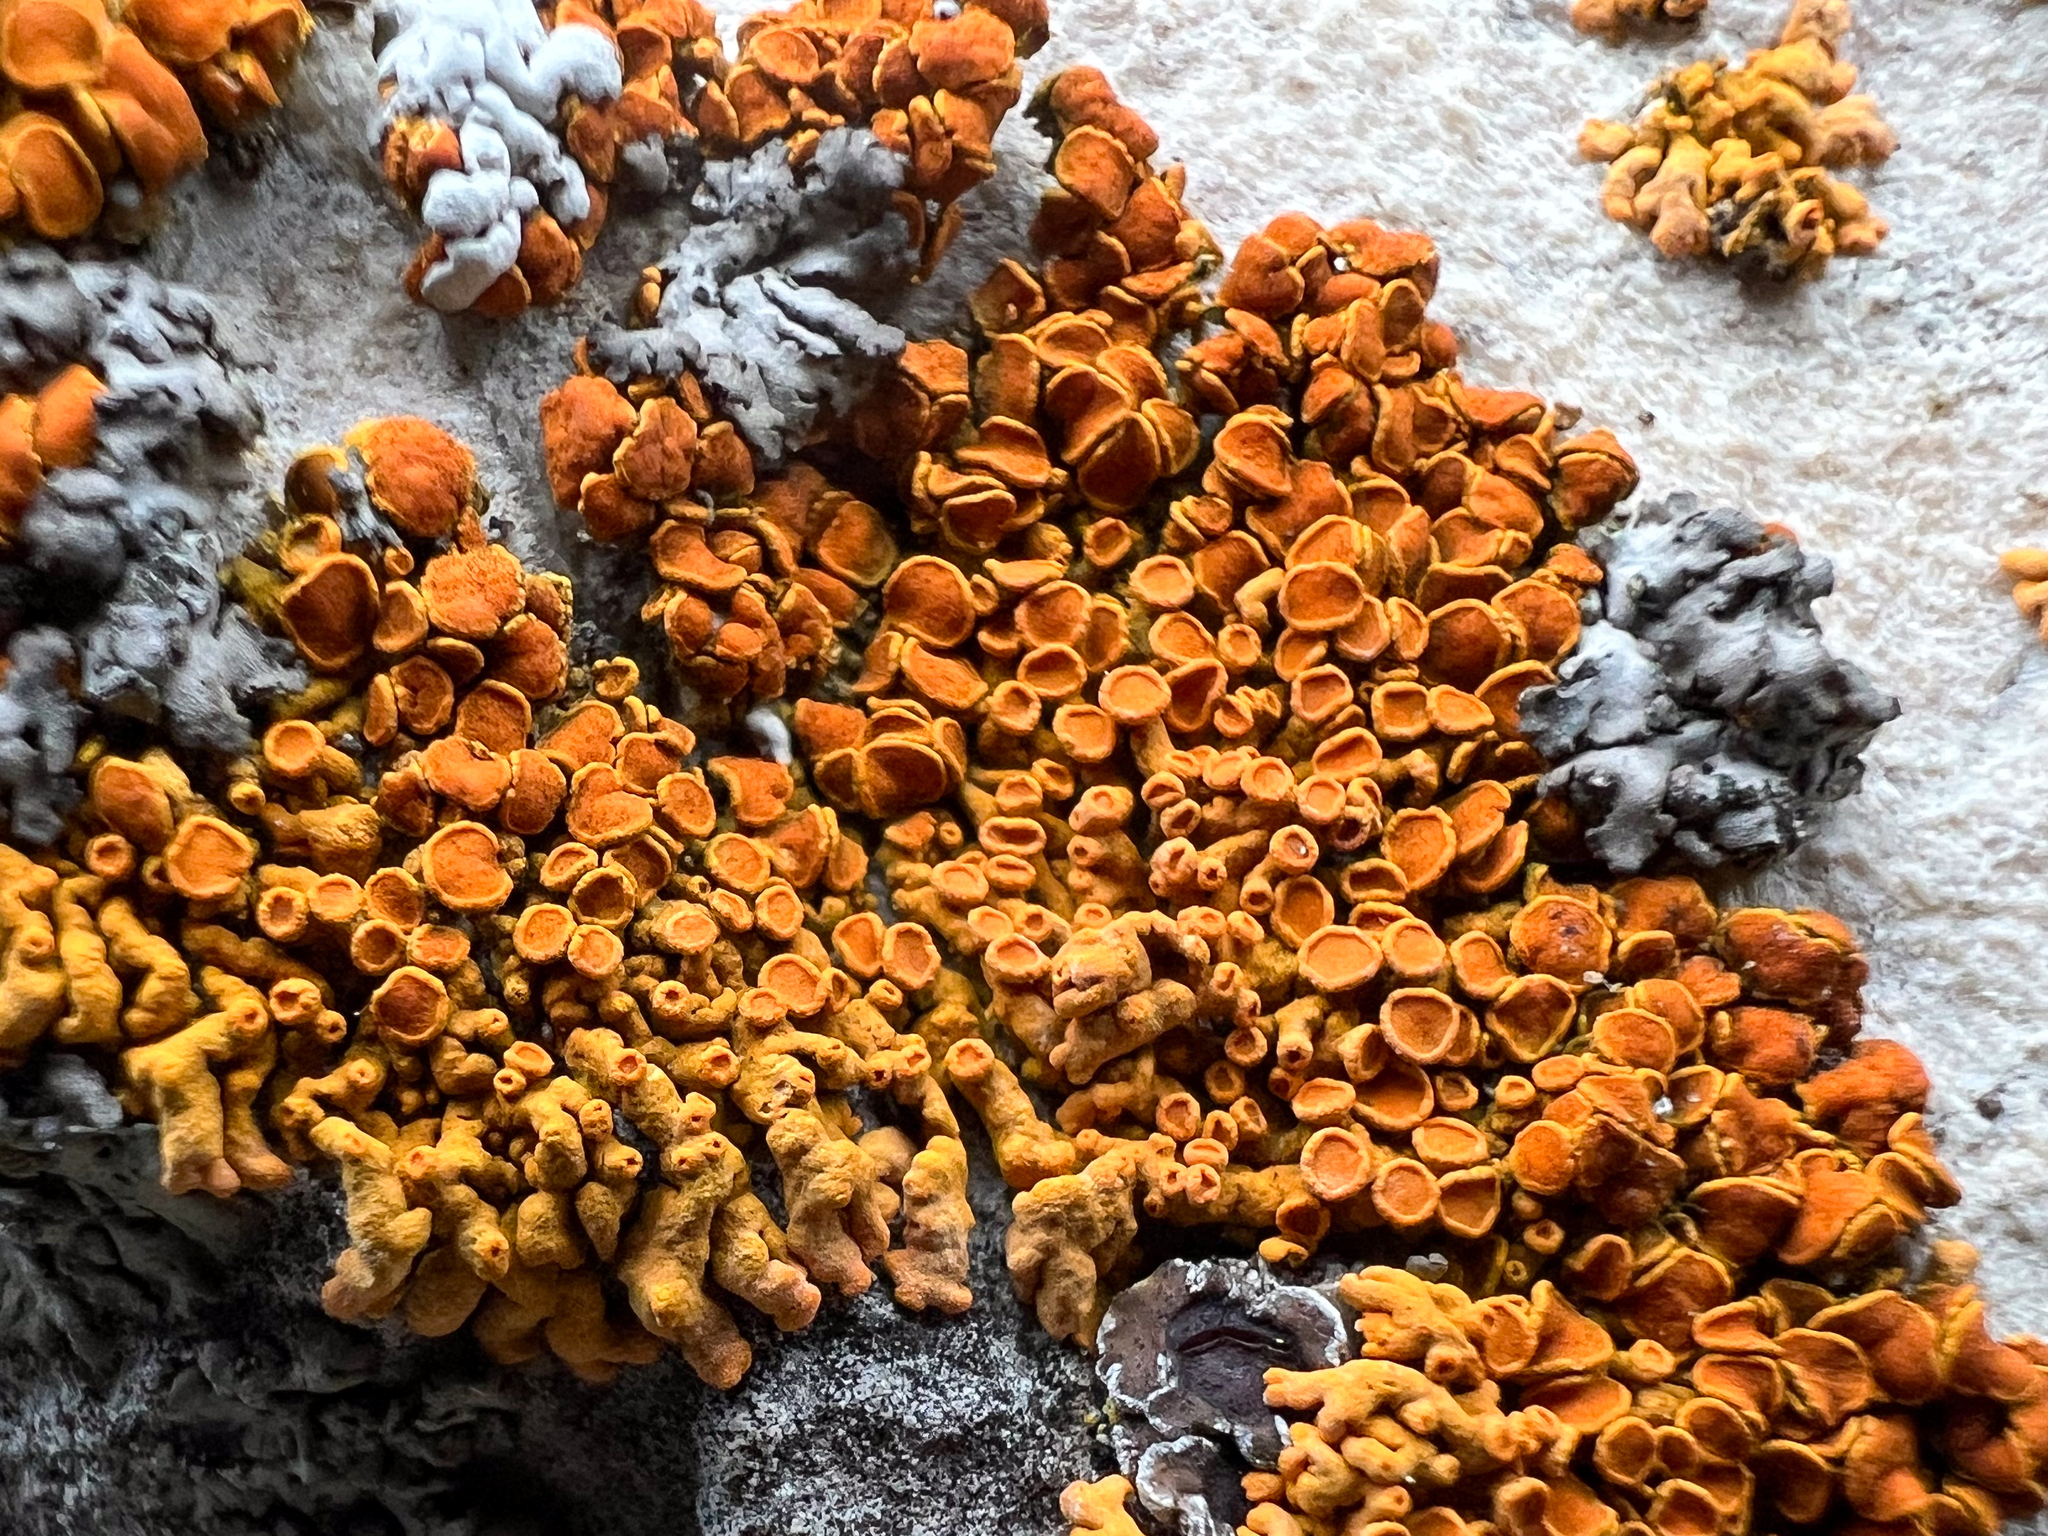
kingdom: Fungi
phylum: Ascomycota
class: Lecanoromycetes
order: Teloschistales
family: Teloschistaceae
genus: Xanthoria
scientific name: Xanthoria elegans
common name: Elegant sunburst lichen
